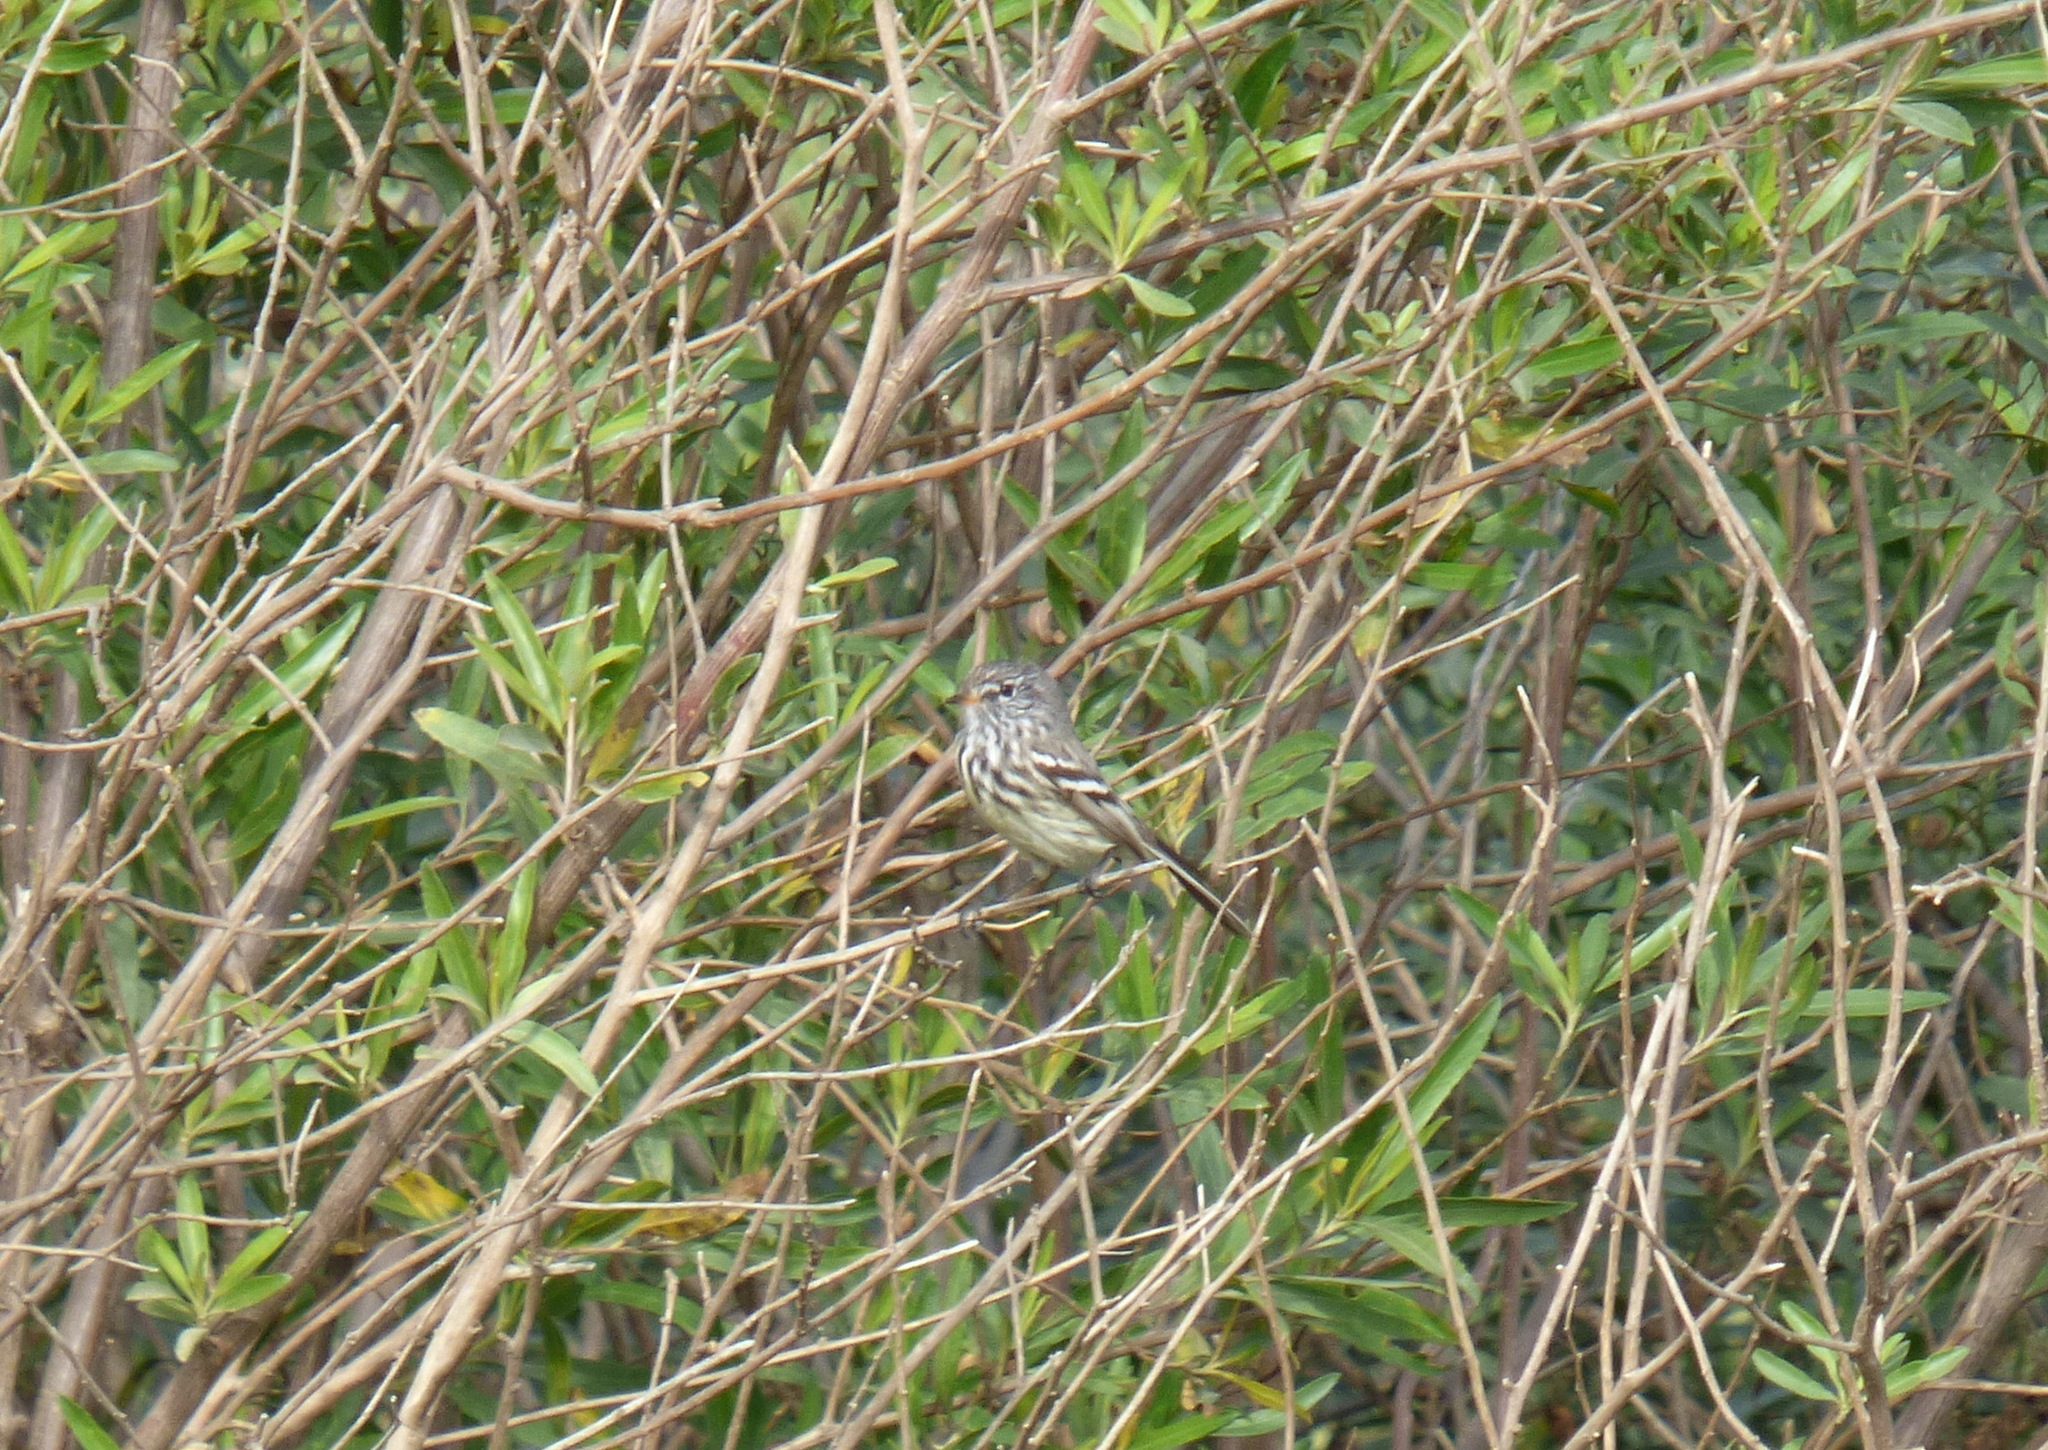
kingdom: Animalia
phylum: Chordata
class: Aves
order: Passeriformes
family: Tyrannidae
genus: Anairetes
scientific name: Anairetes flavirostris
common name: Yellow-billed tit-tyrant
